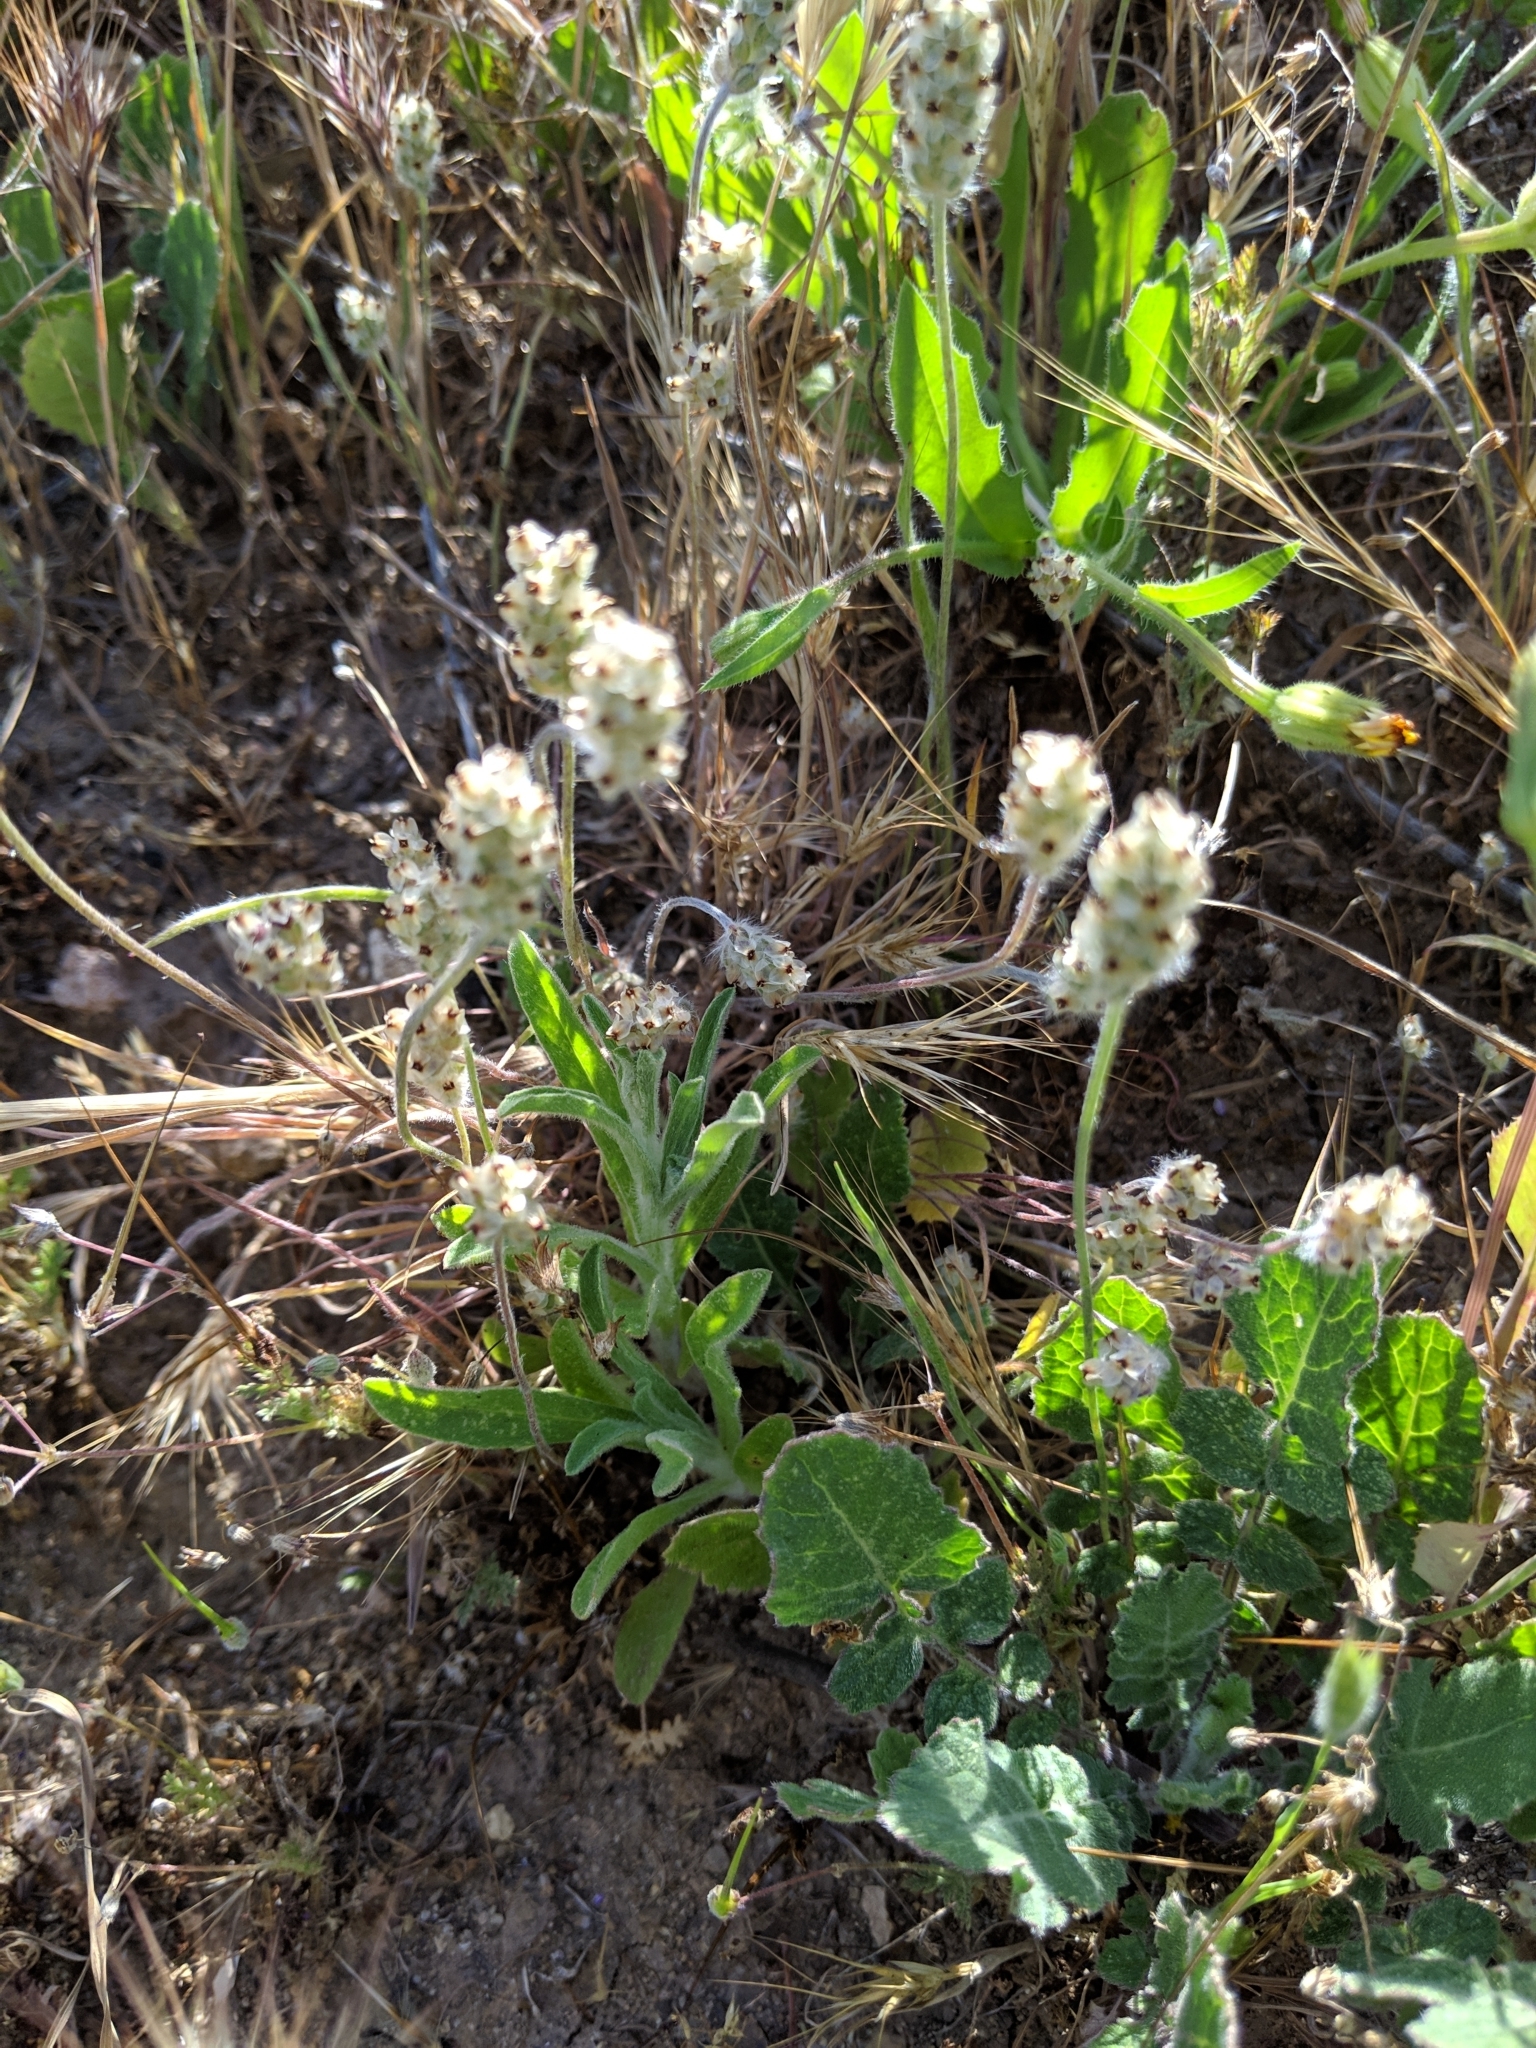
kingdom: Plantae
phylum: Tracheophyta
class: Magnoliopsida
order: Lamiales
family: Plantaginaceae
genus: Plantago
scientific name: Plantago erecta
